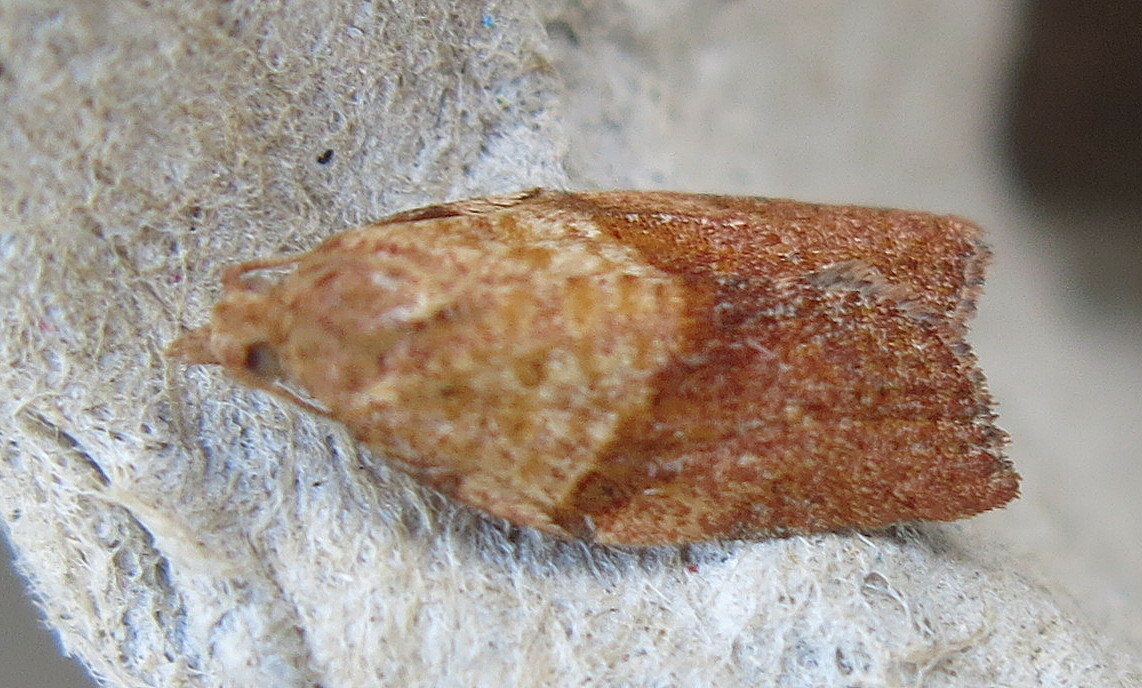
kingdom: Animalia
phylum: Arthropoda
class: Insecta
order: Lepidoptera
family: Tortricidae
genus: Epiphyas
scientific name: Epiphyas postvittana
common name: Light brown apple moth
